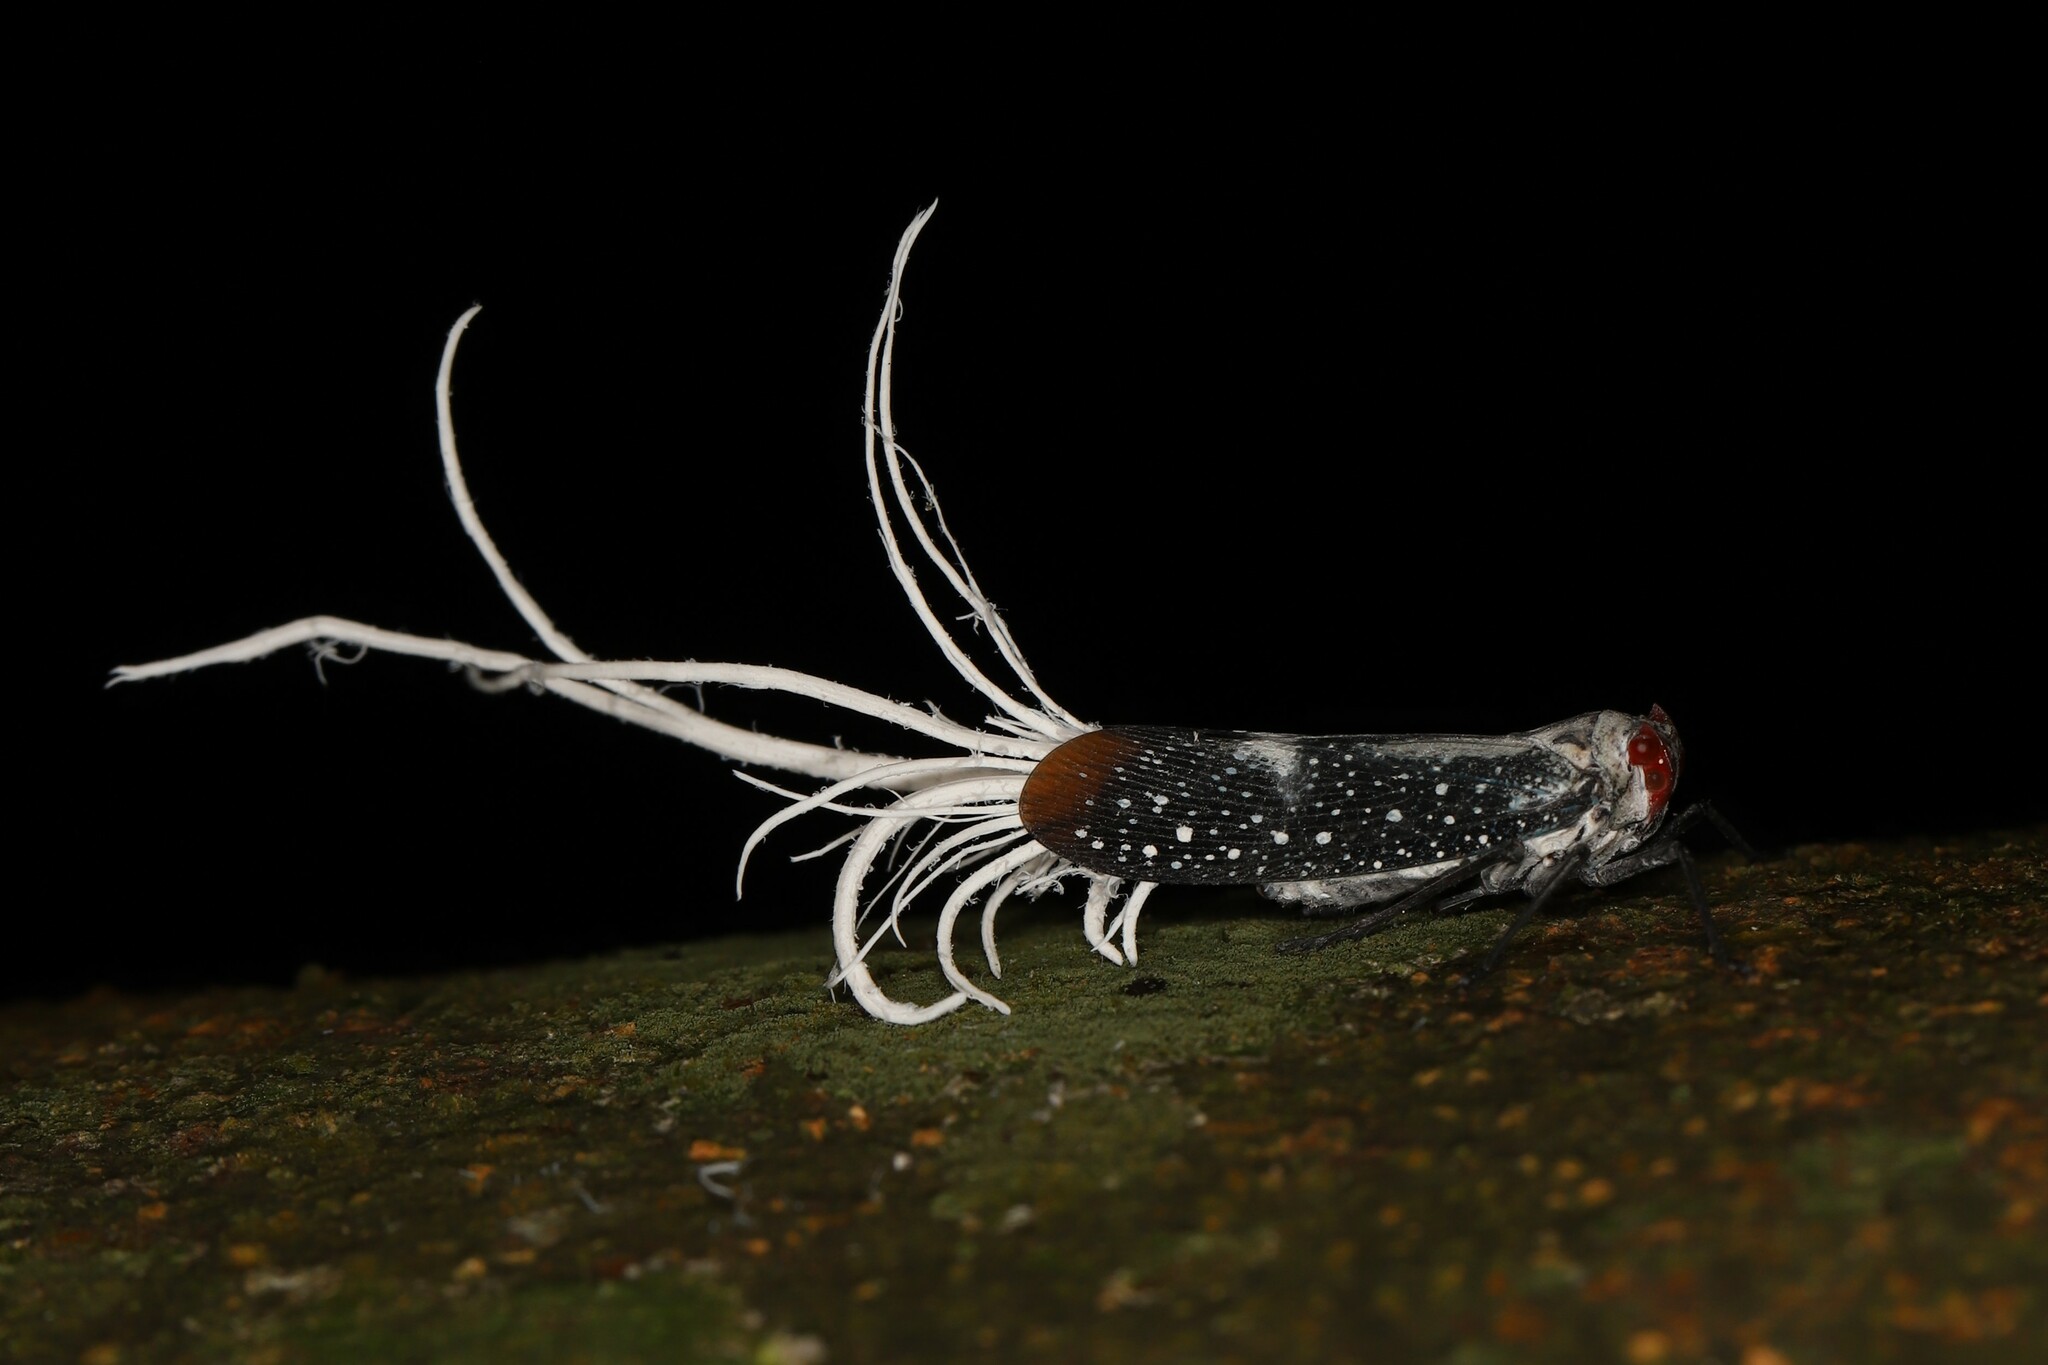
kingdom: Animalia
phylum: Arthropoda
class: Insecta
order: Hemiptera
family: Fulgoridae
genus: Lystra
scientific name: Lystra lanata
